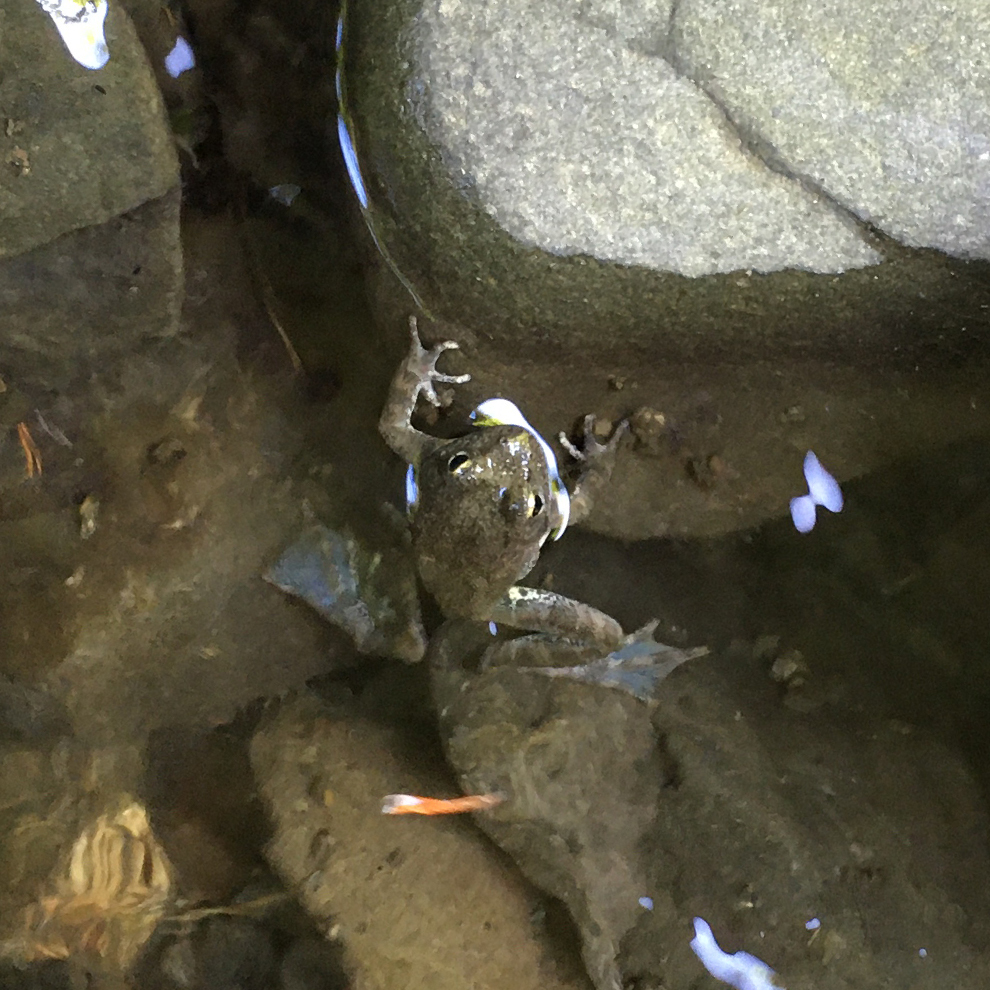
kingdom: Animalia
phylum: Chordata
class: Amphibia
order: Anura
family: Ranidae
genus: Rana
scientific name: Rana boylii
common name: Foothill yellow-legged frog
